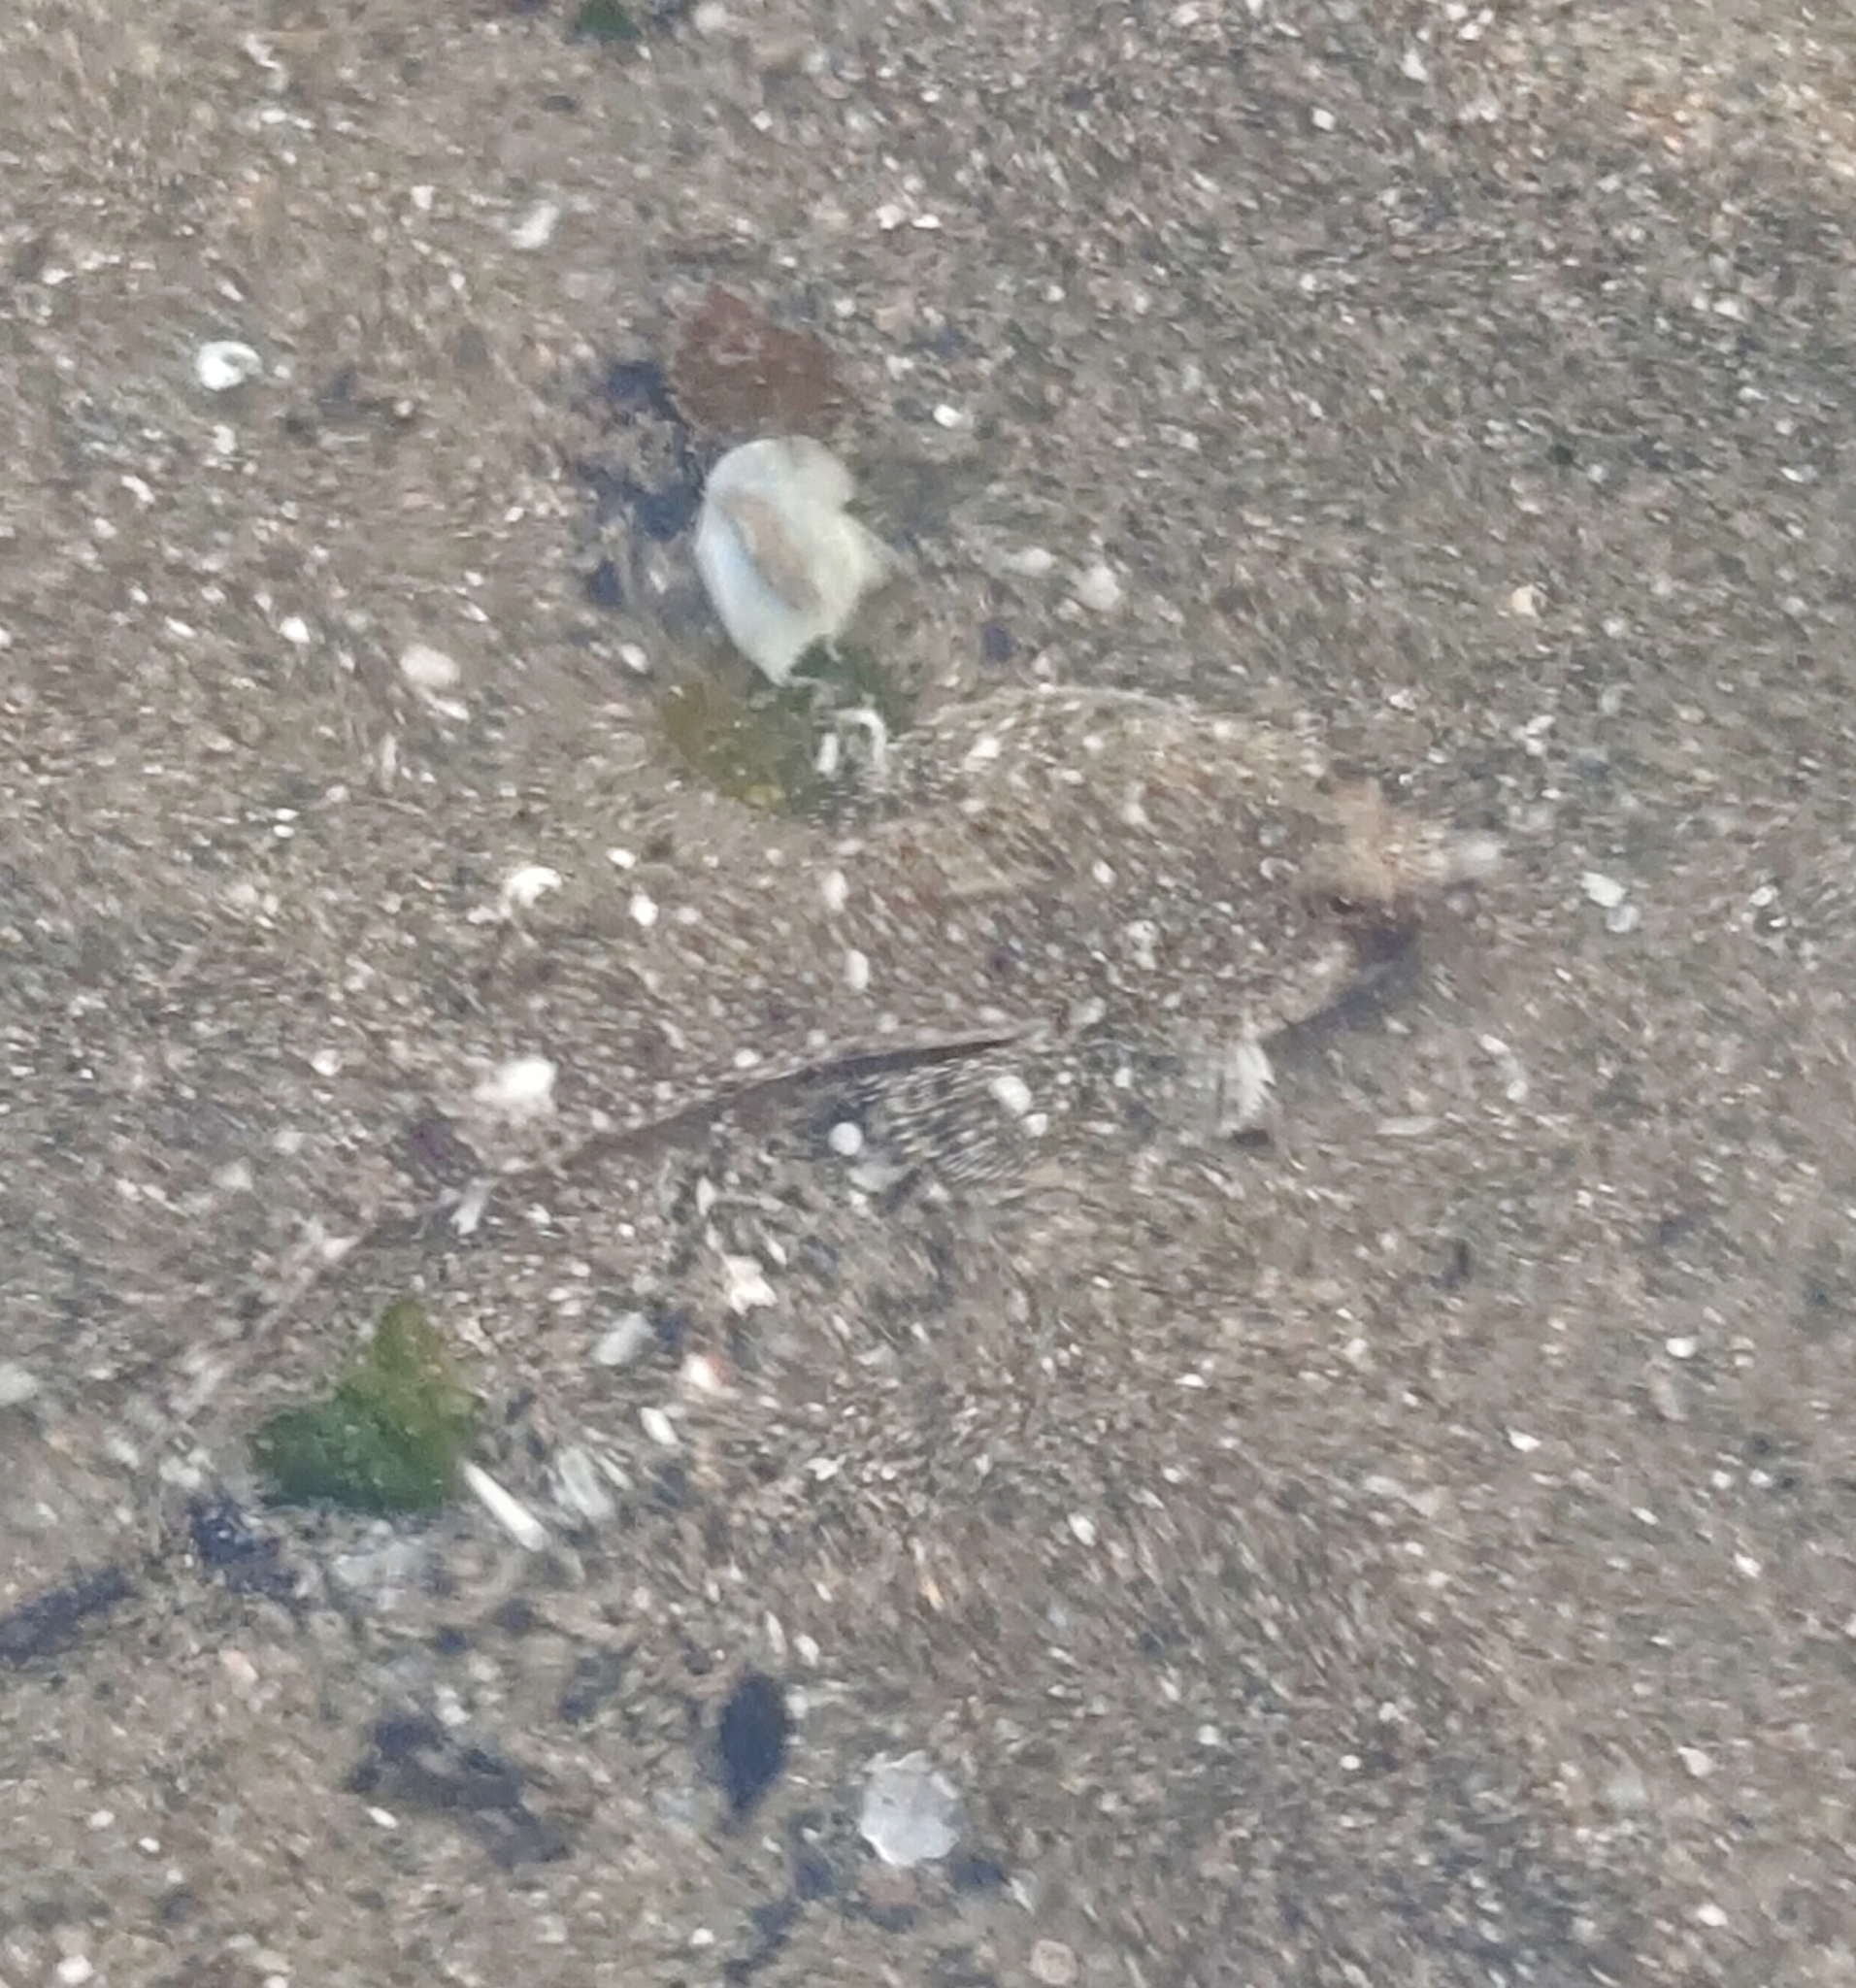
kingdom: Animalia
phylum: Chordata
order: Perciformes
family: Callionymidae
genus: Callionymus
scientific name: Callionymus erythraeus
